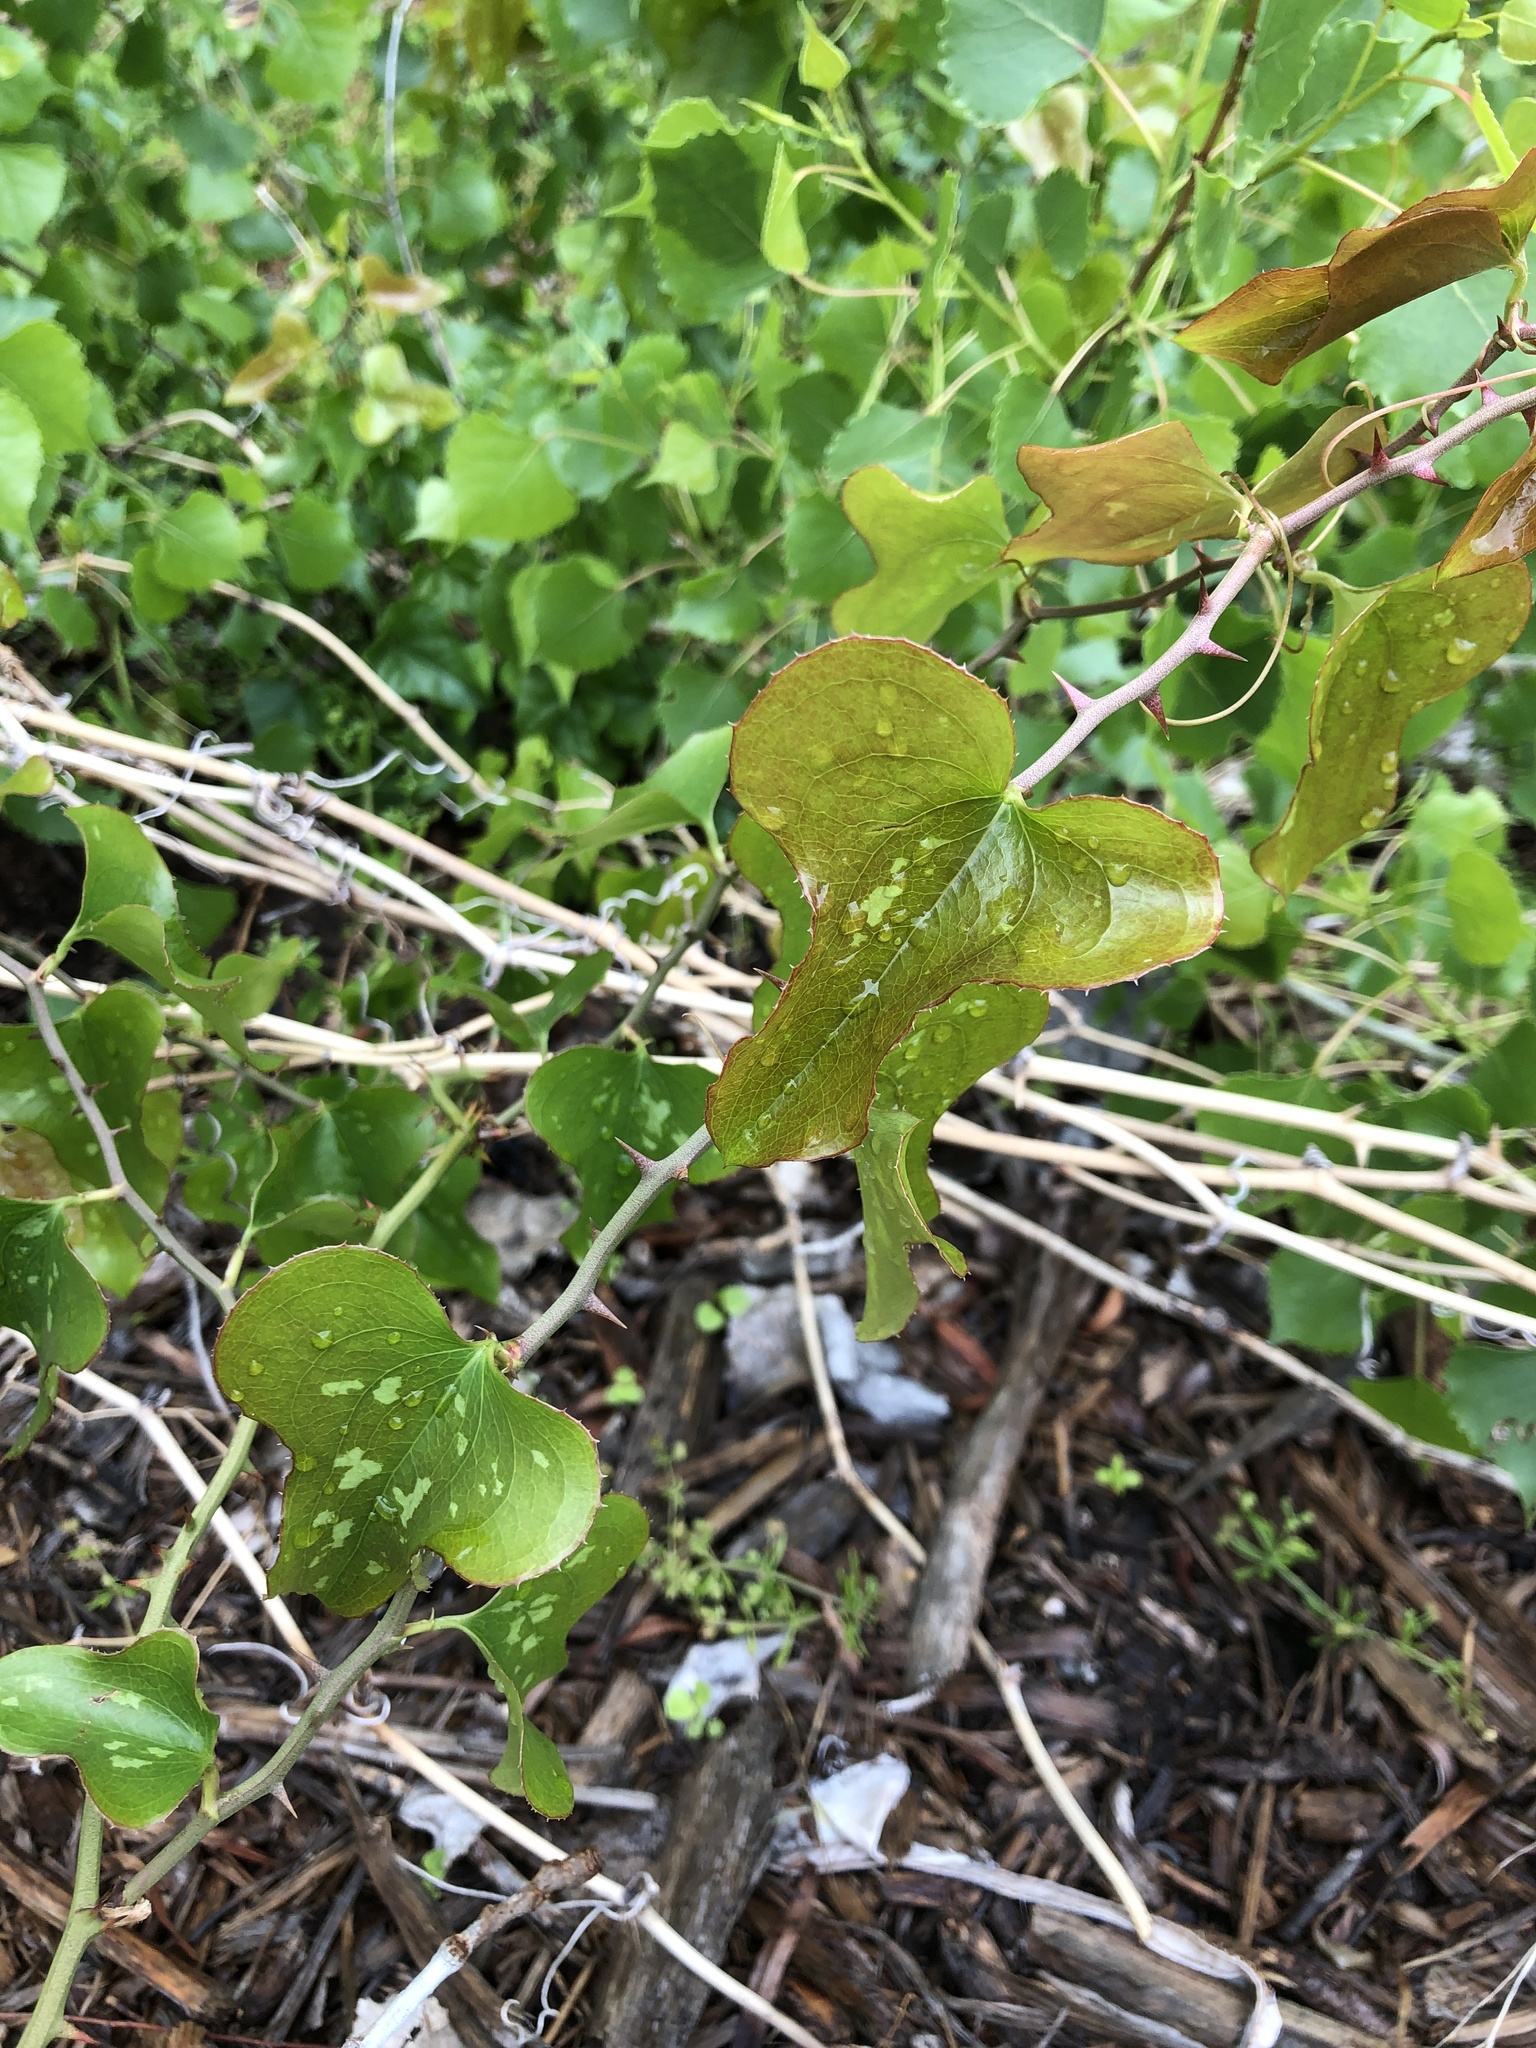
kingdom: Plantae
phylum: Tracheophyta
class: Liliopsida
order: Liliales
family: Smilacaceae
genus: Smilax
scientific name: Smilax bona-nox
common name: Catbrier
